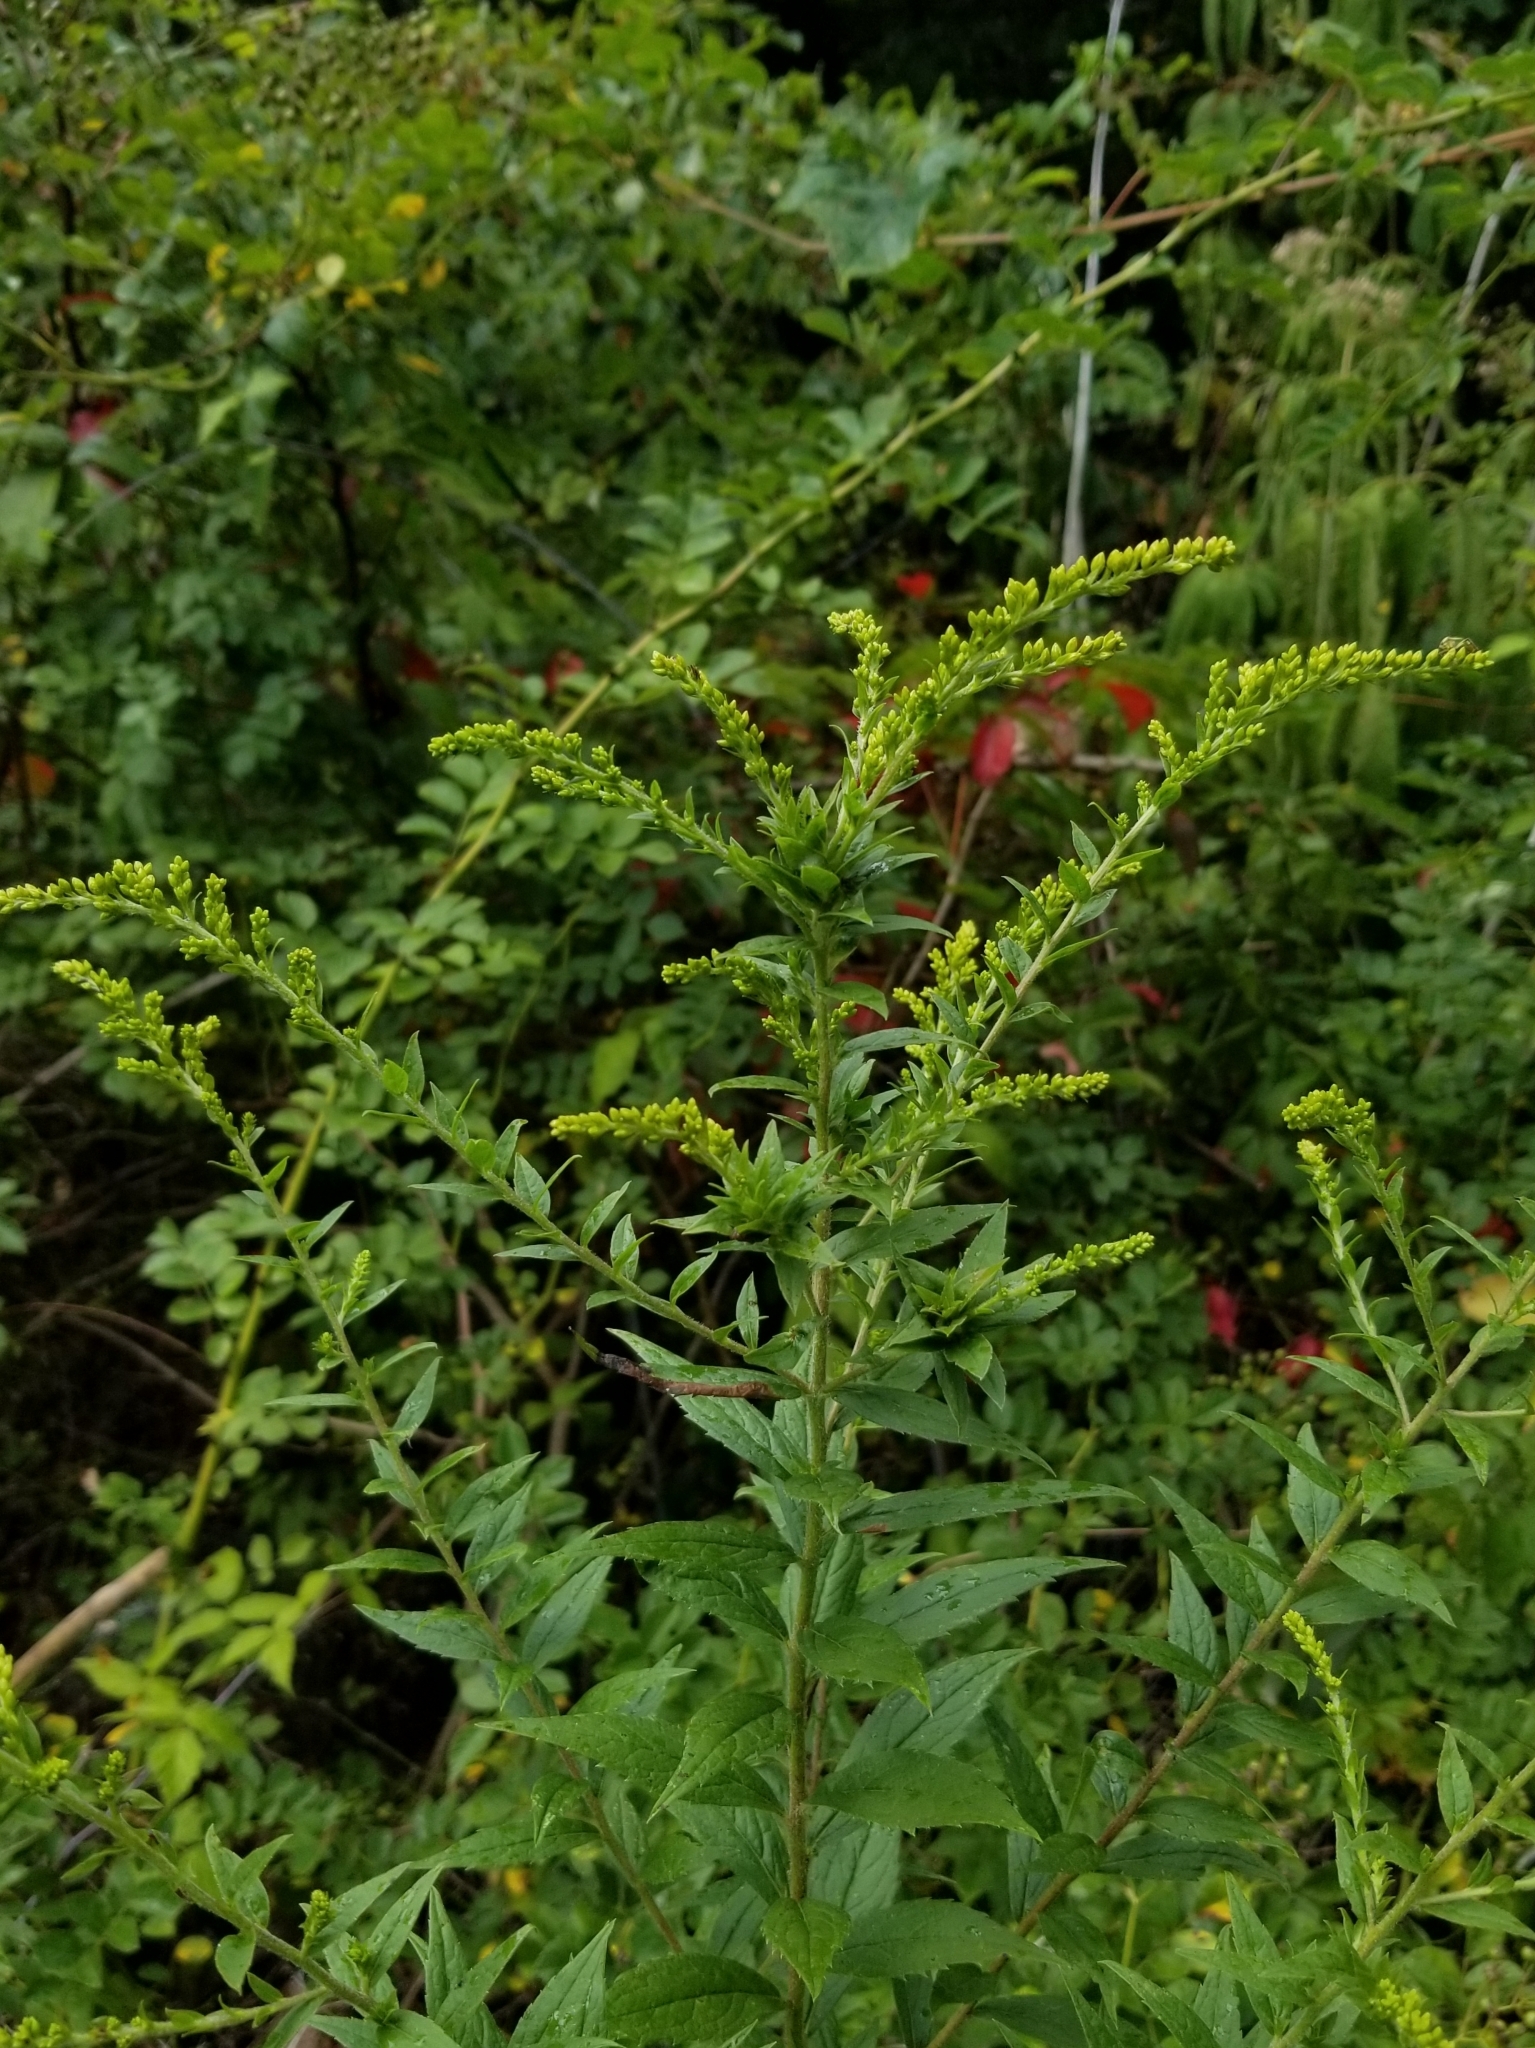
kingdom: Plantae
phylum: Tracheophyta
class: Magnoliopsida
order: Asterales
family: Asteraceae
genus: Solidago
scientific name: Solidago rugosa
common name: Rough-stemmed goldenrod
